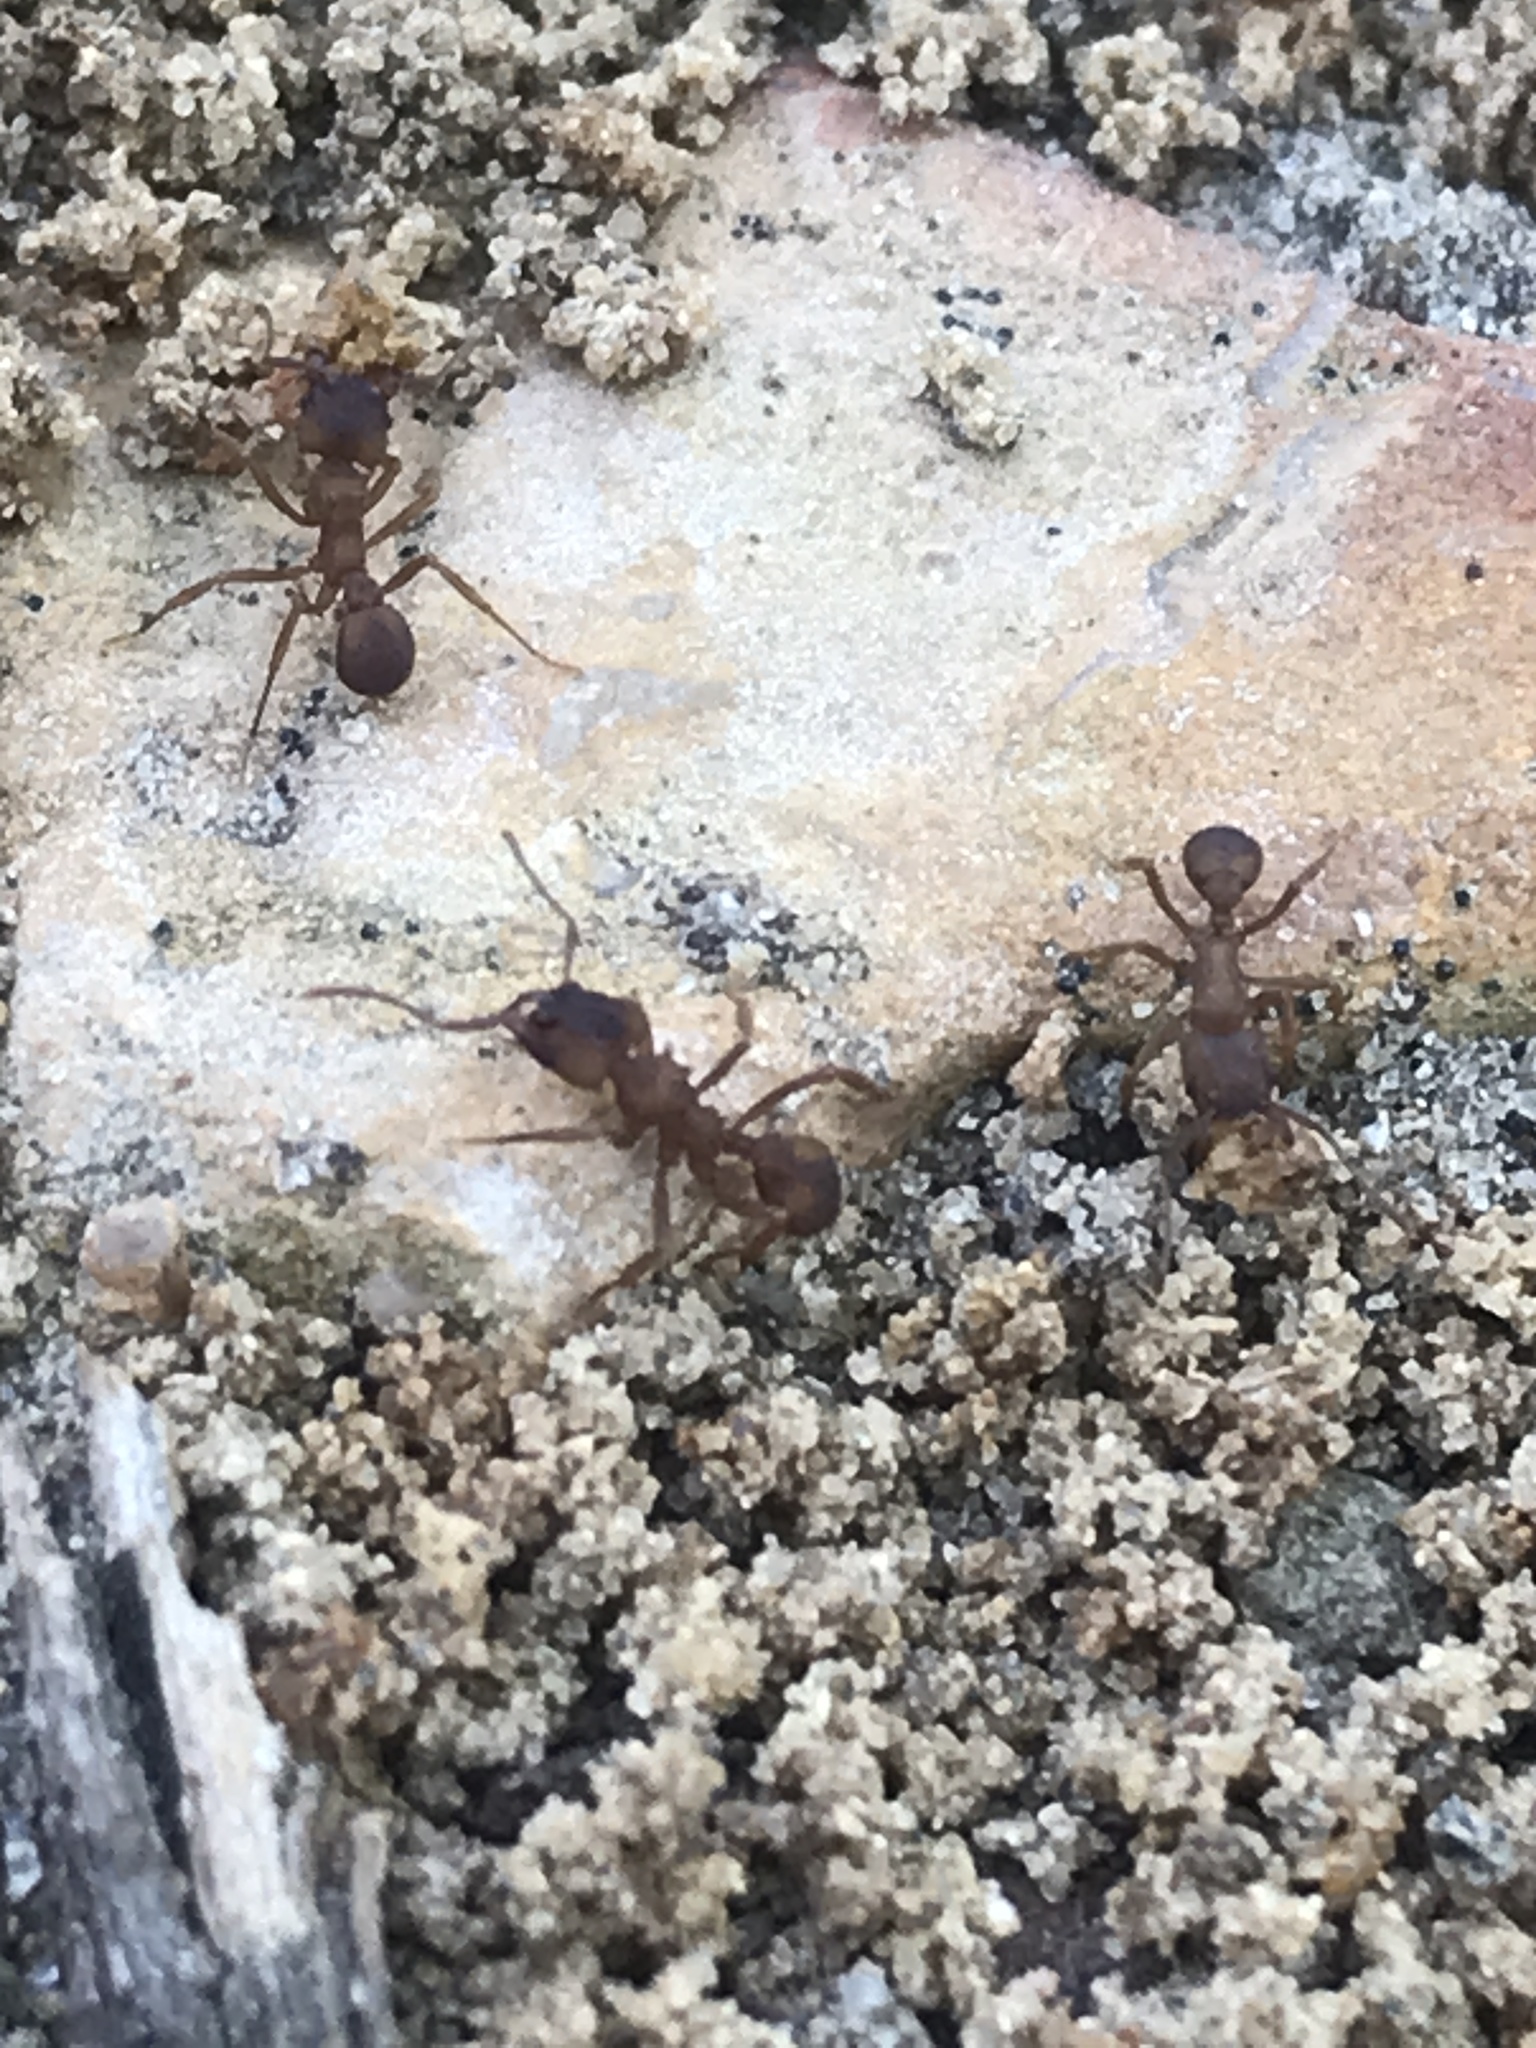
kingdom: Animalia
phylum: Arthropoda
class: Insecta
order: Hymenoptera
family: Formicidae
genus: Trachymyrmex
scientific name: Trachymyrmex septentrionalis
